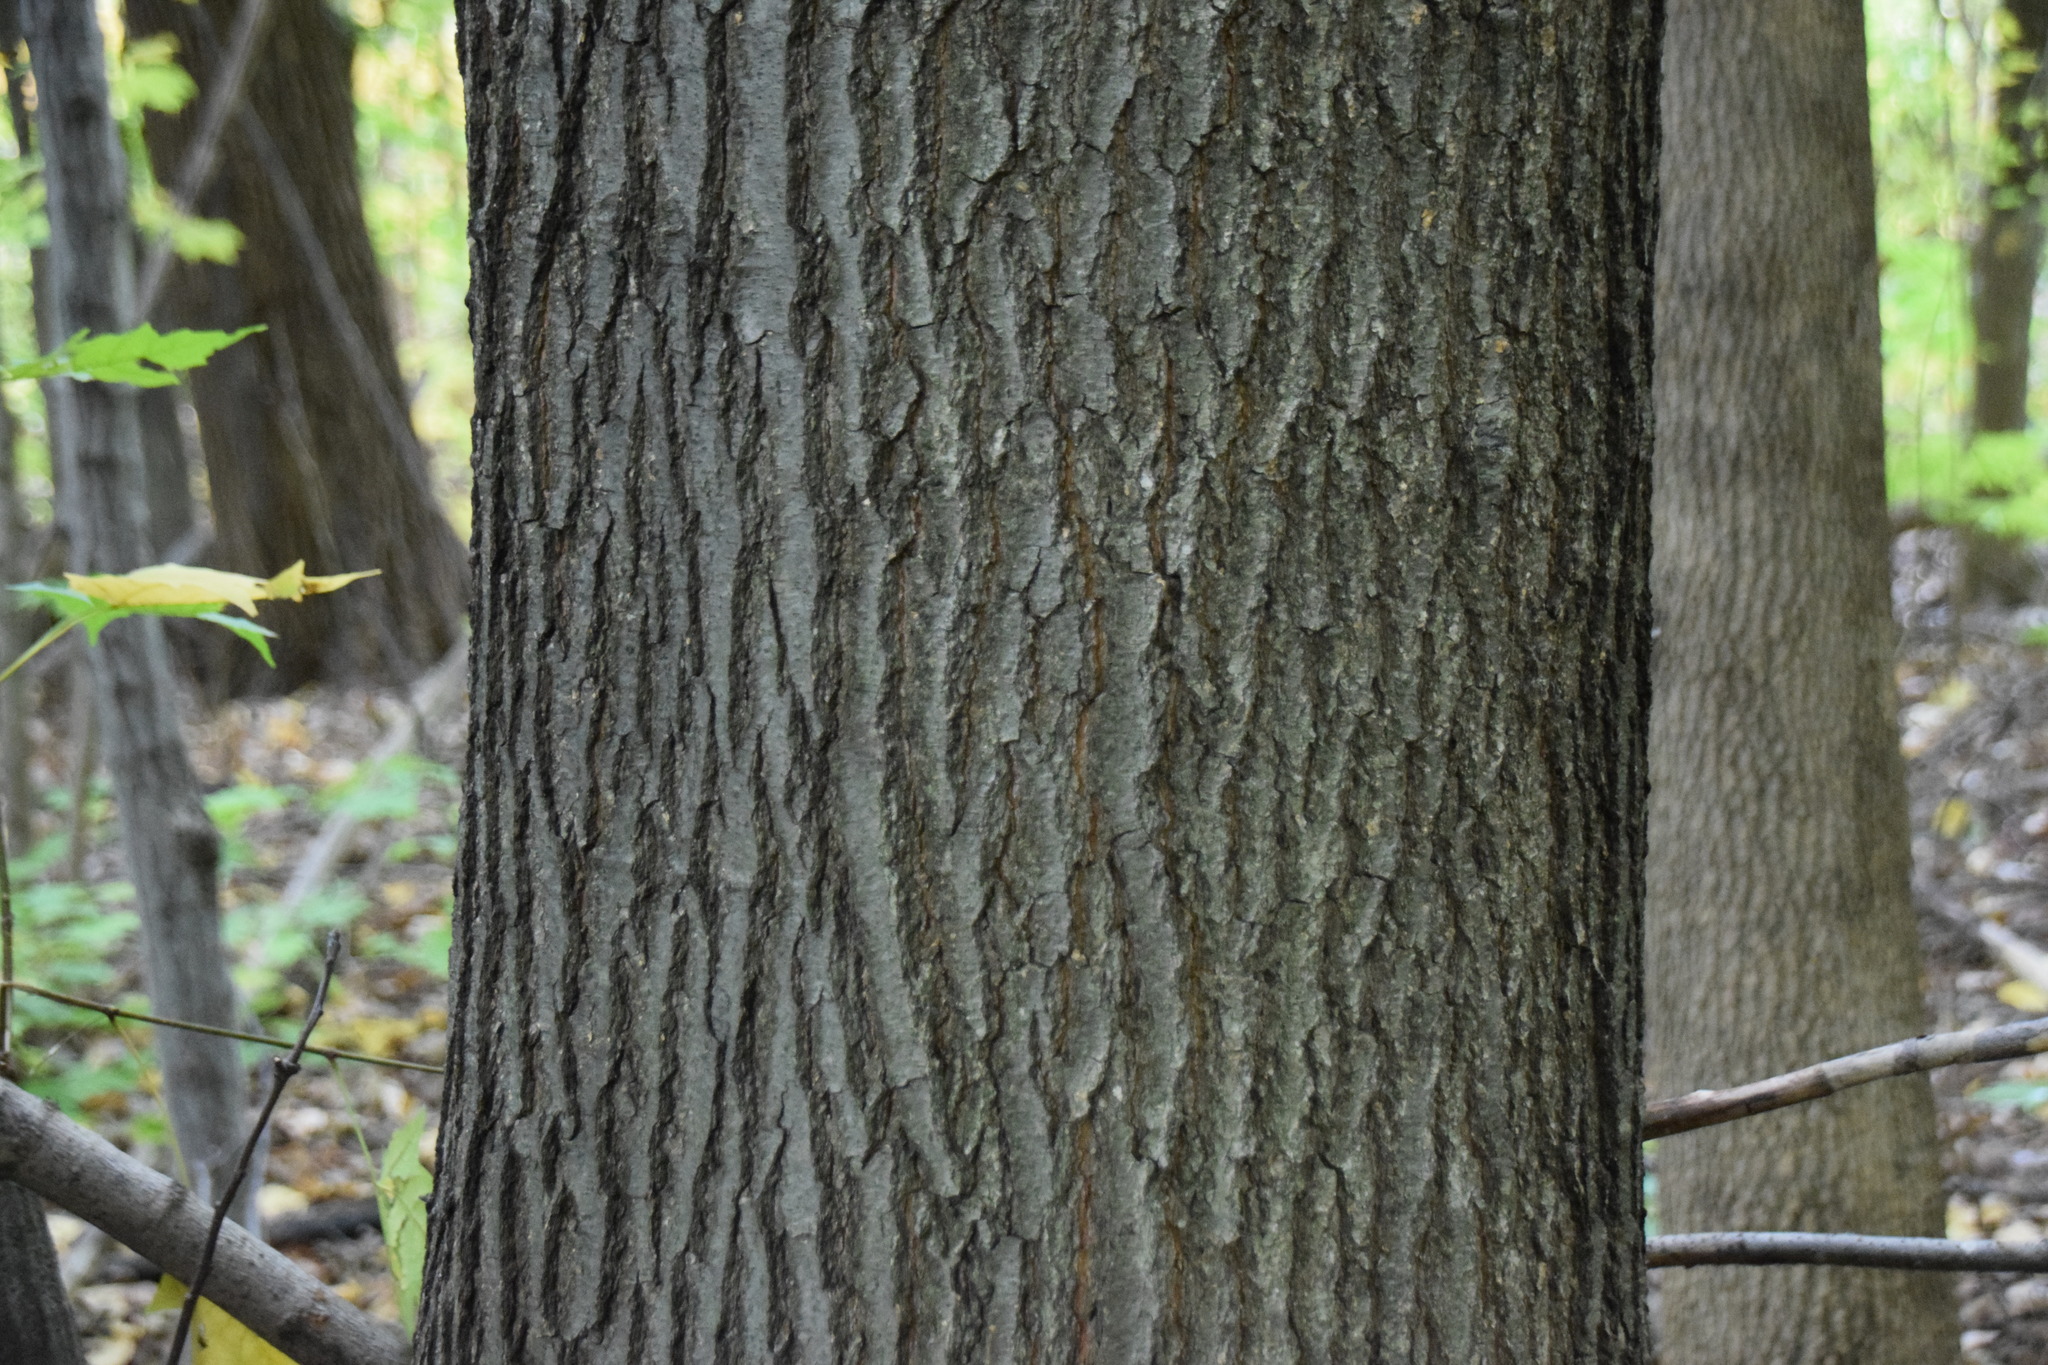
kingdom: Plantae
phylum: Tracheophyta
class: Magnoliopsida
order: Fagales
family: Fagaceae
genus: Quercus
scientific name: Quercus rubra
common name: Red oak
